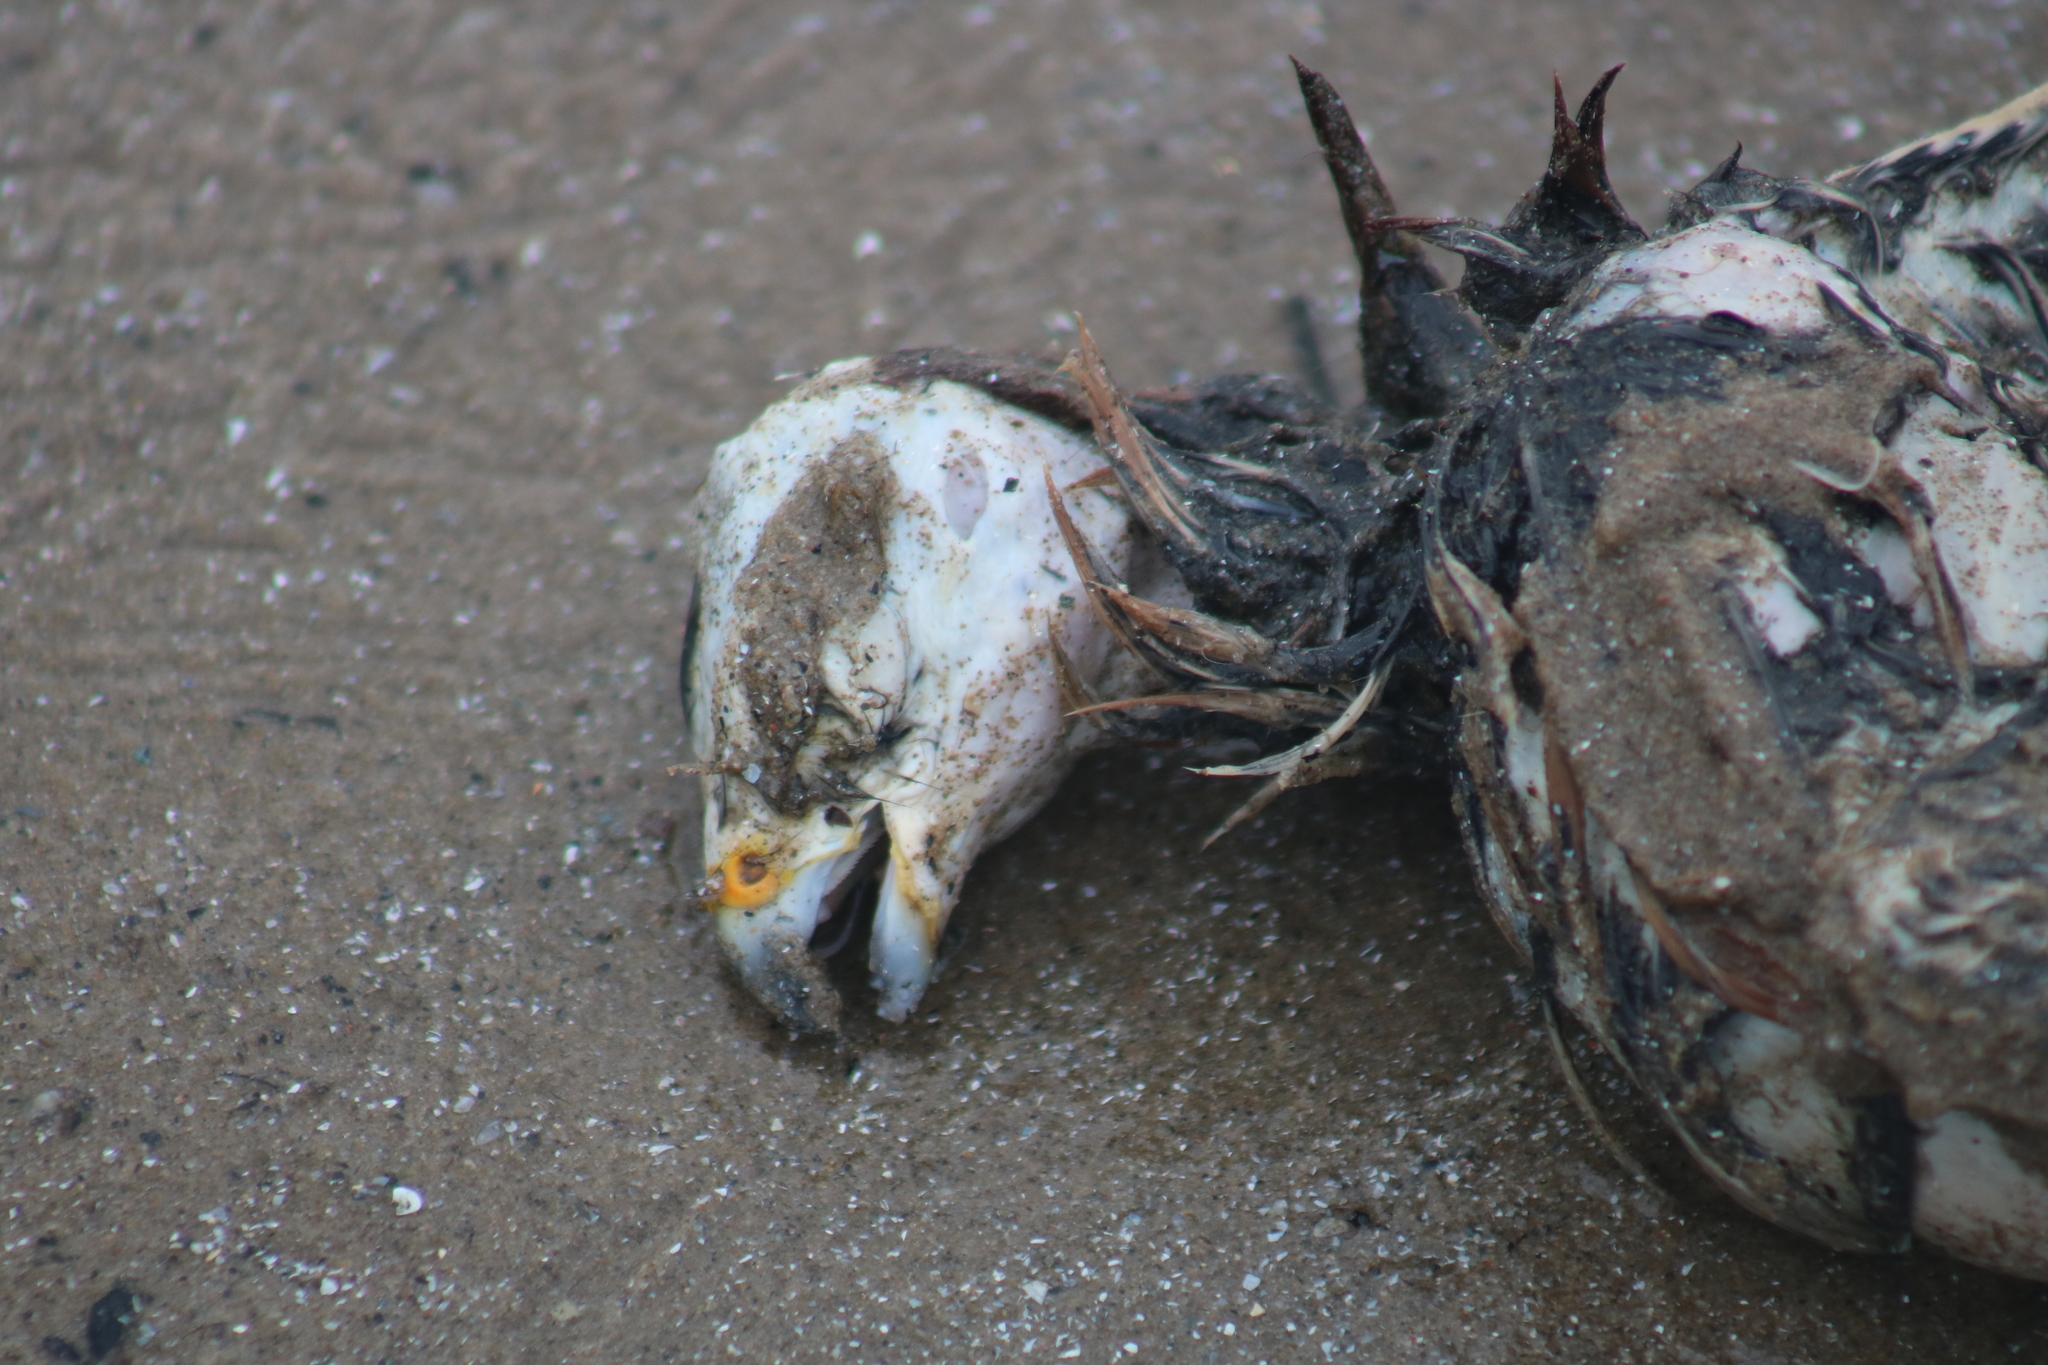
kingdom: Animalia
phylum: Chordata
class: Aves
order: Falconiformes
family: Falconidae
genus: Falco
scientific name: Falco columbarius
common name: Merlin
